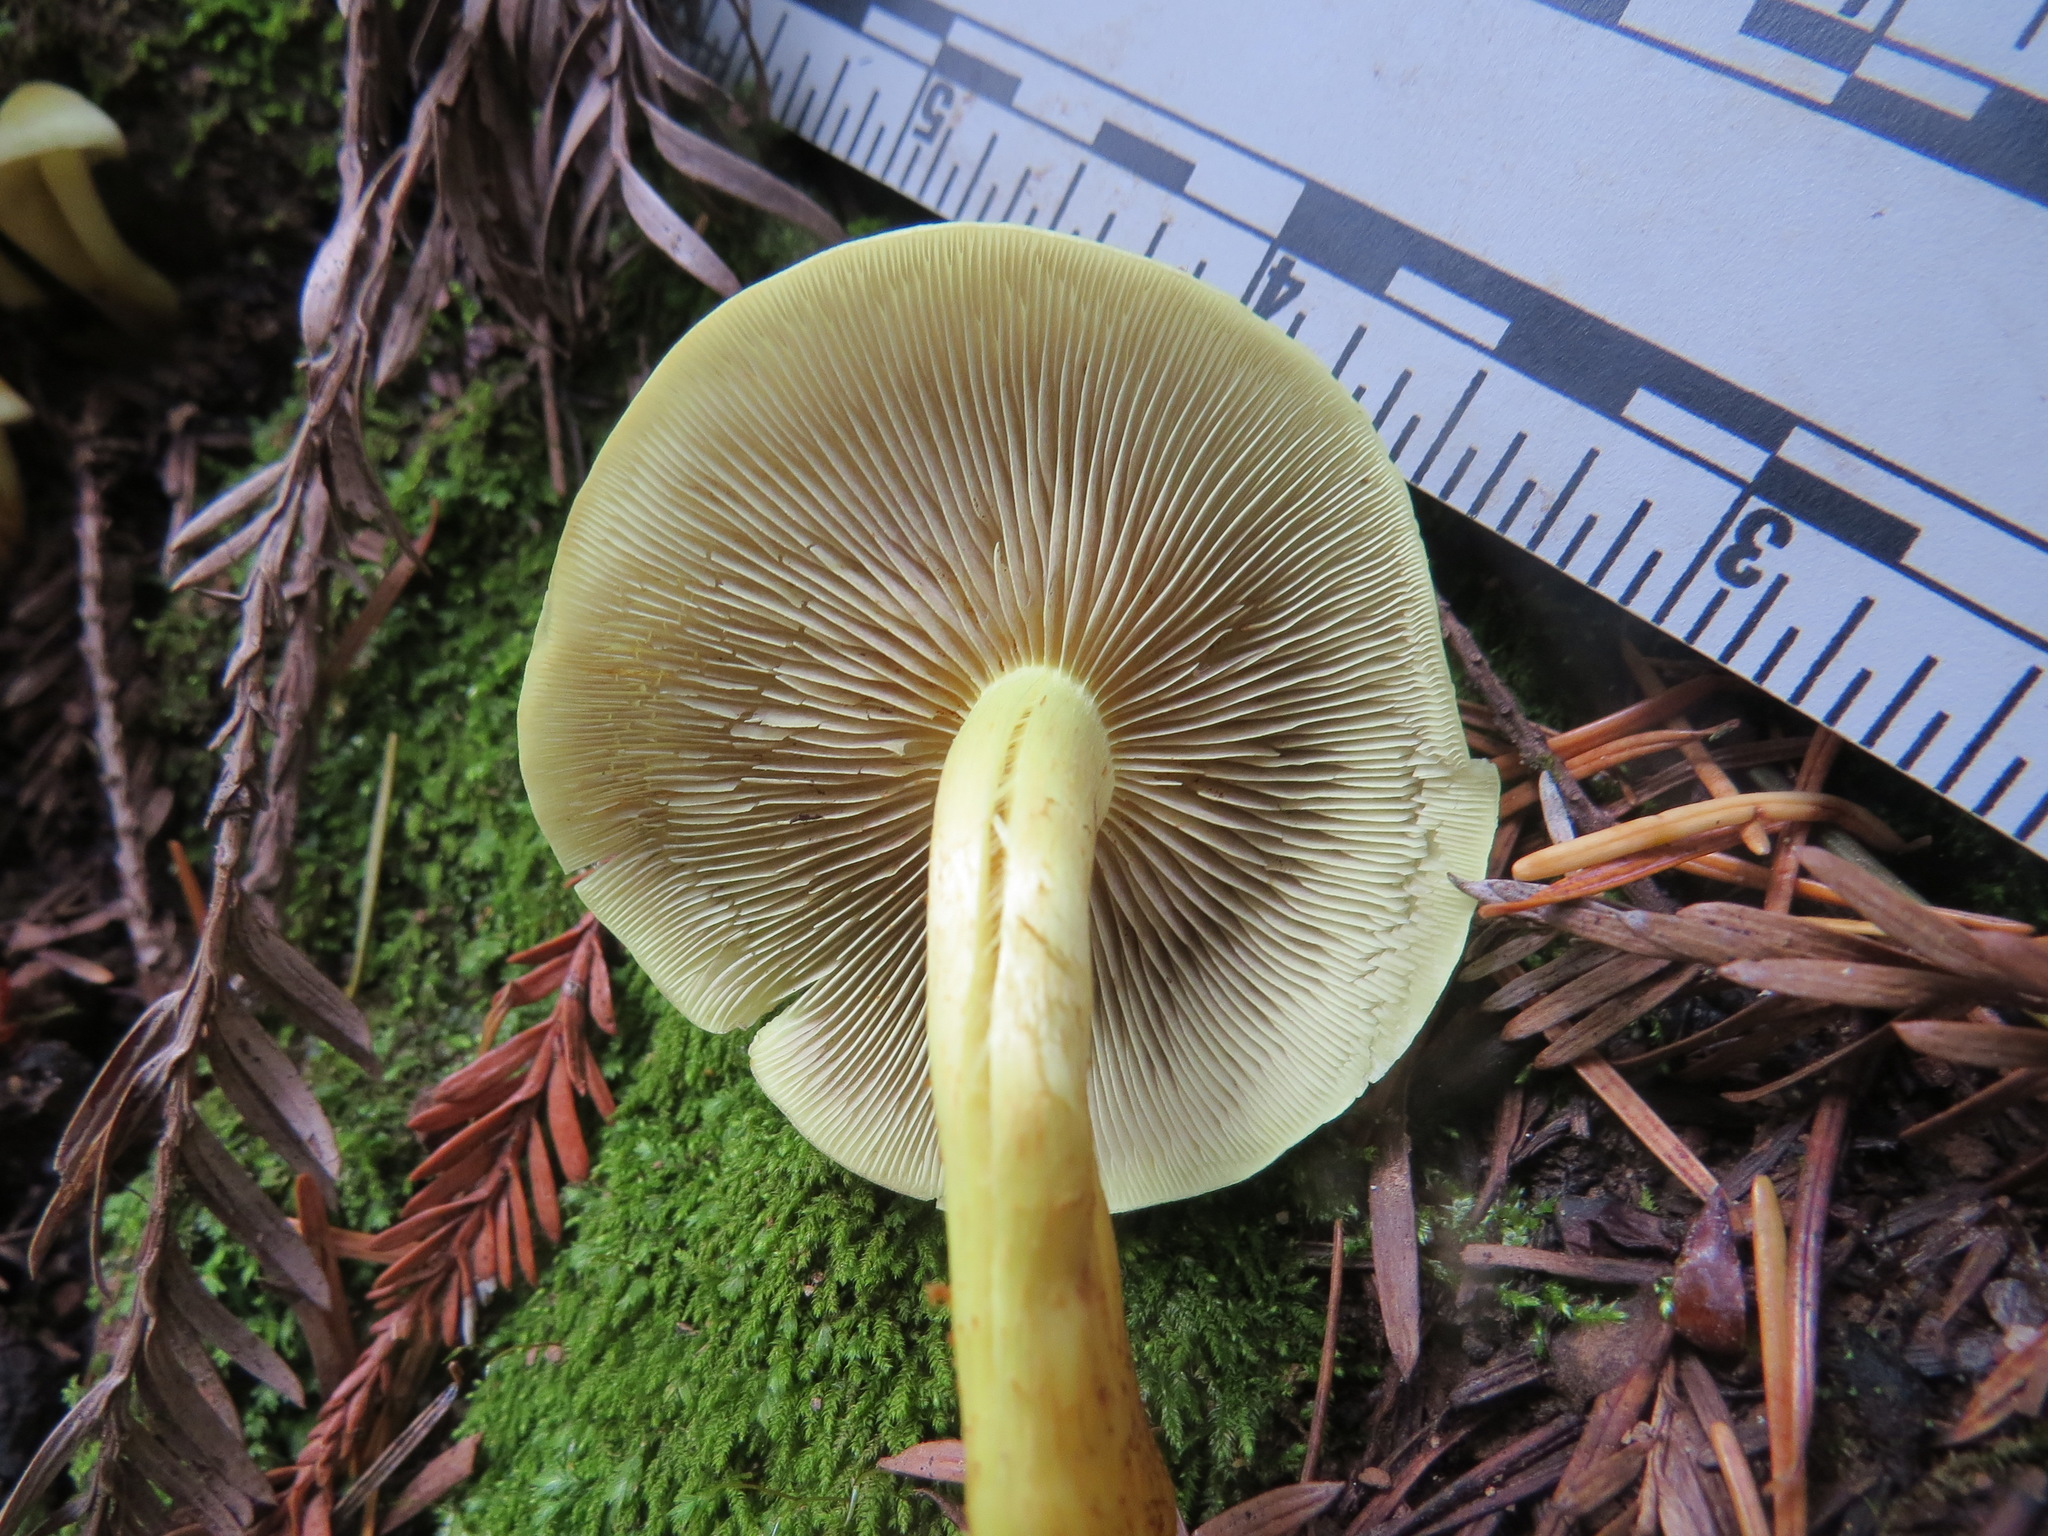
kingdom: Fungi
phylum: Basidiomycota
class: Agaricomycetes
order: Agaricales
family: Strophariaceae
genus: Hypholoma
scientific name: Hypholoma fasciculare
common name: Sulphur tuft
